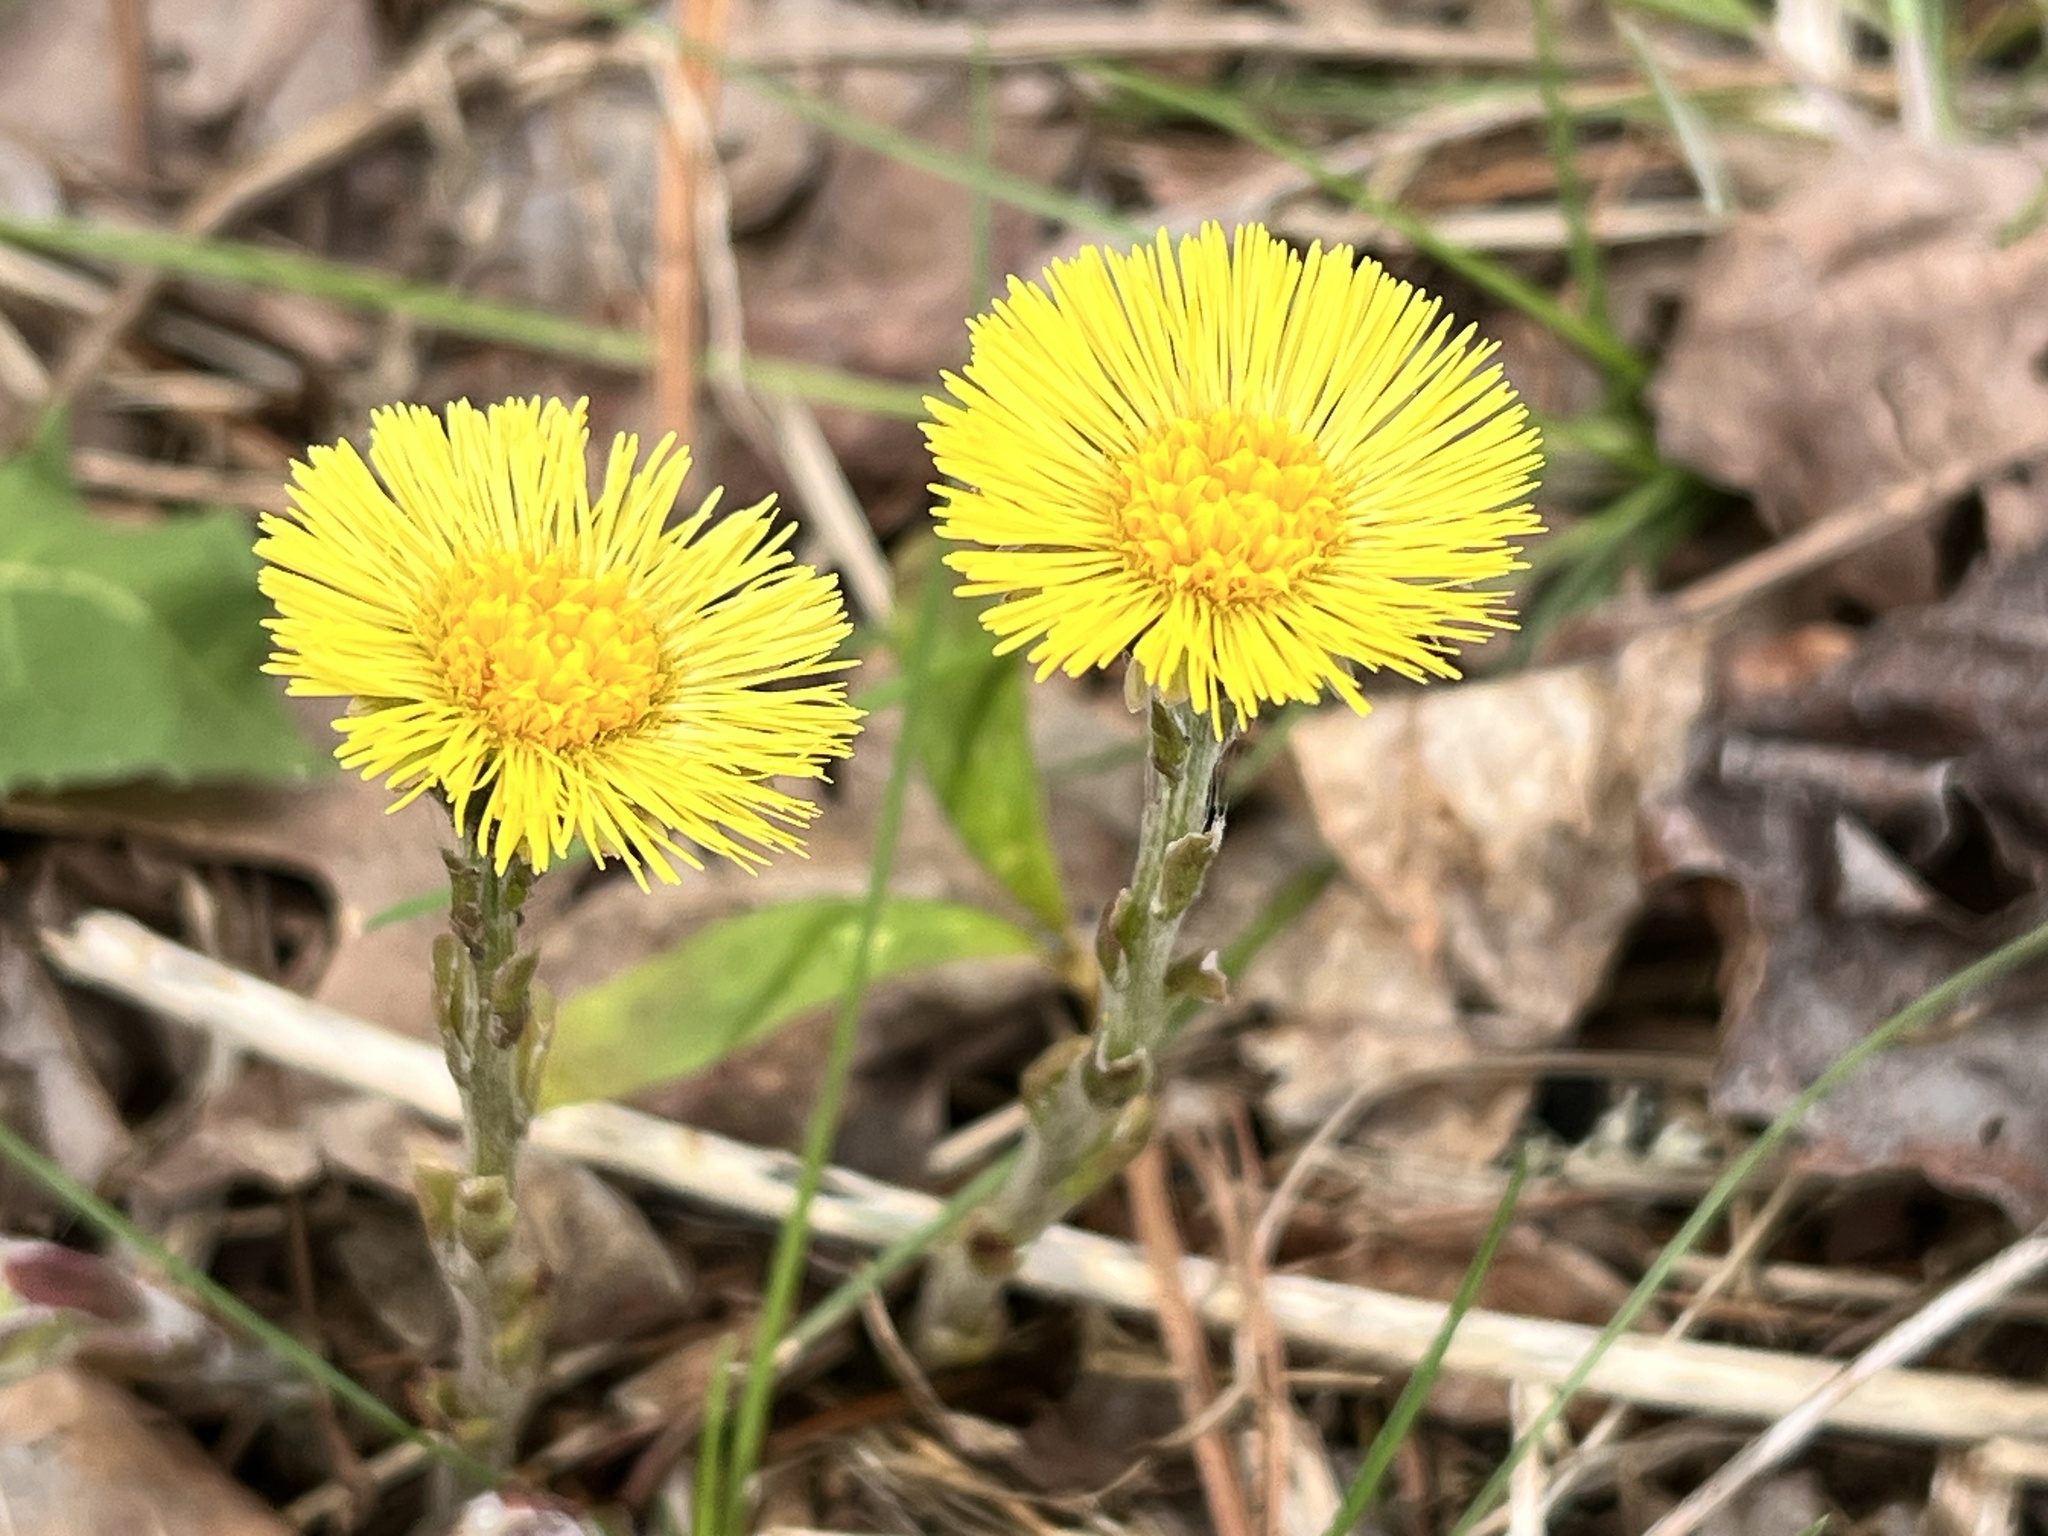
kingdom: Plantae
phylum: Tracheophyta
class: Magnoliopsida
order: Asterales
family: Asteraceae
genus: Tussilago
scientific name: Tussilago farfara
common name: Coltsfoot
